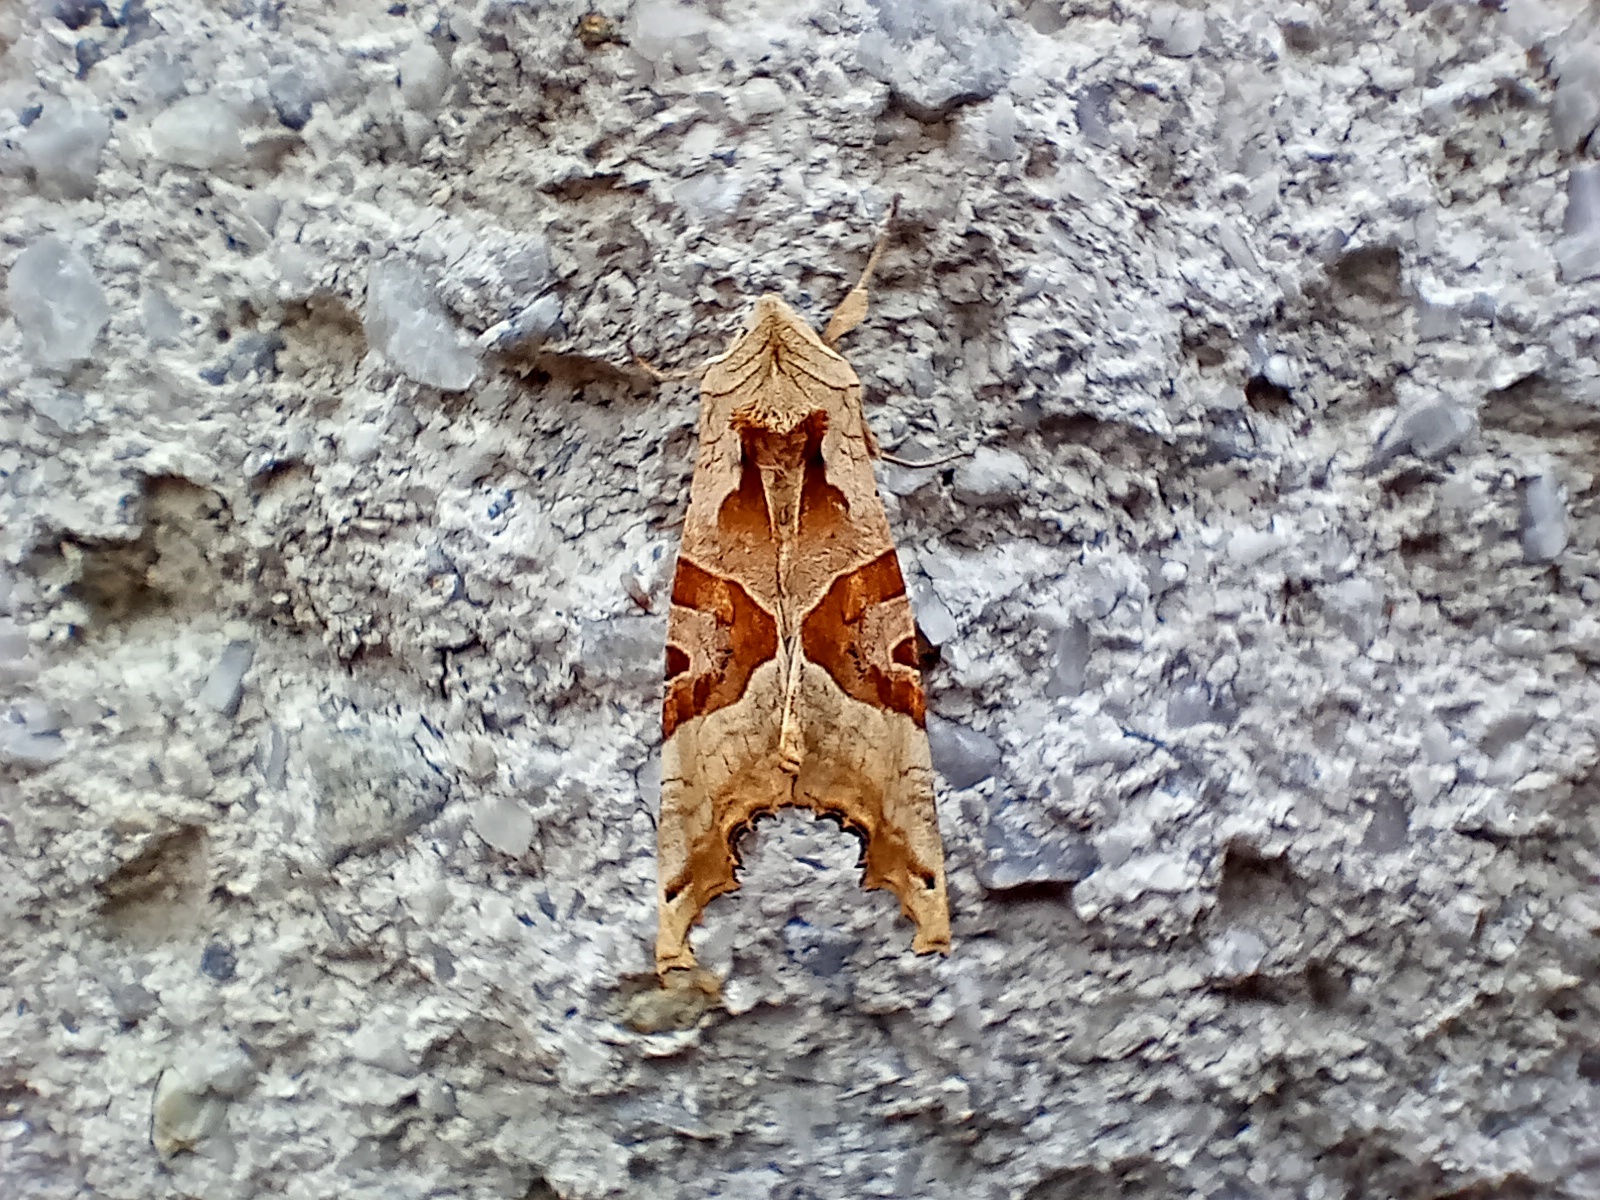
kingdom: Animalia
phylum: Arthropoda
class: Insecta
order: Lepidoptera
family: Noctuidae
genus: Phlogophora
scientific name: Phlogophora meticulosa
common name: Angle shades
